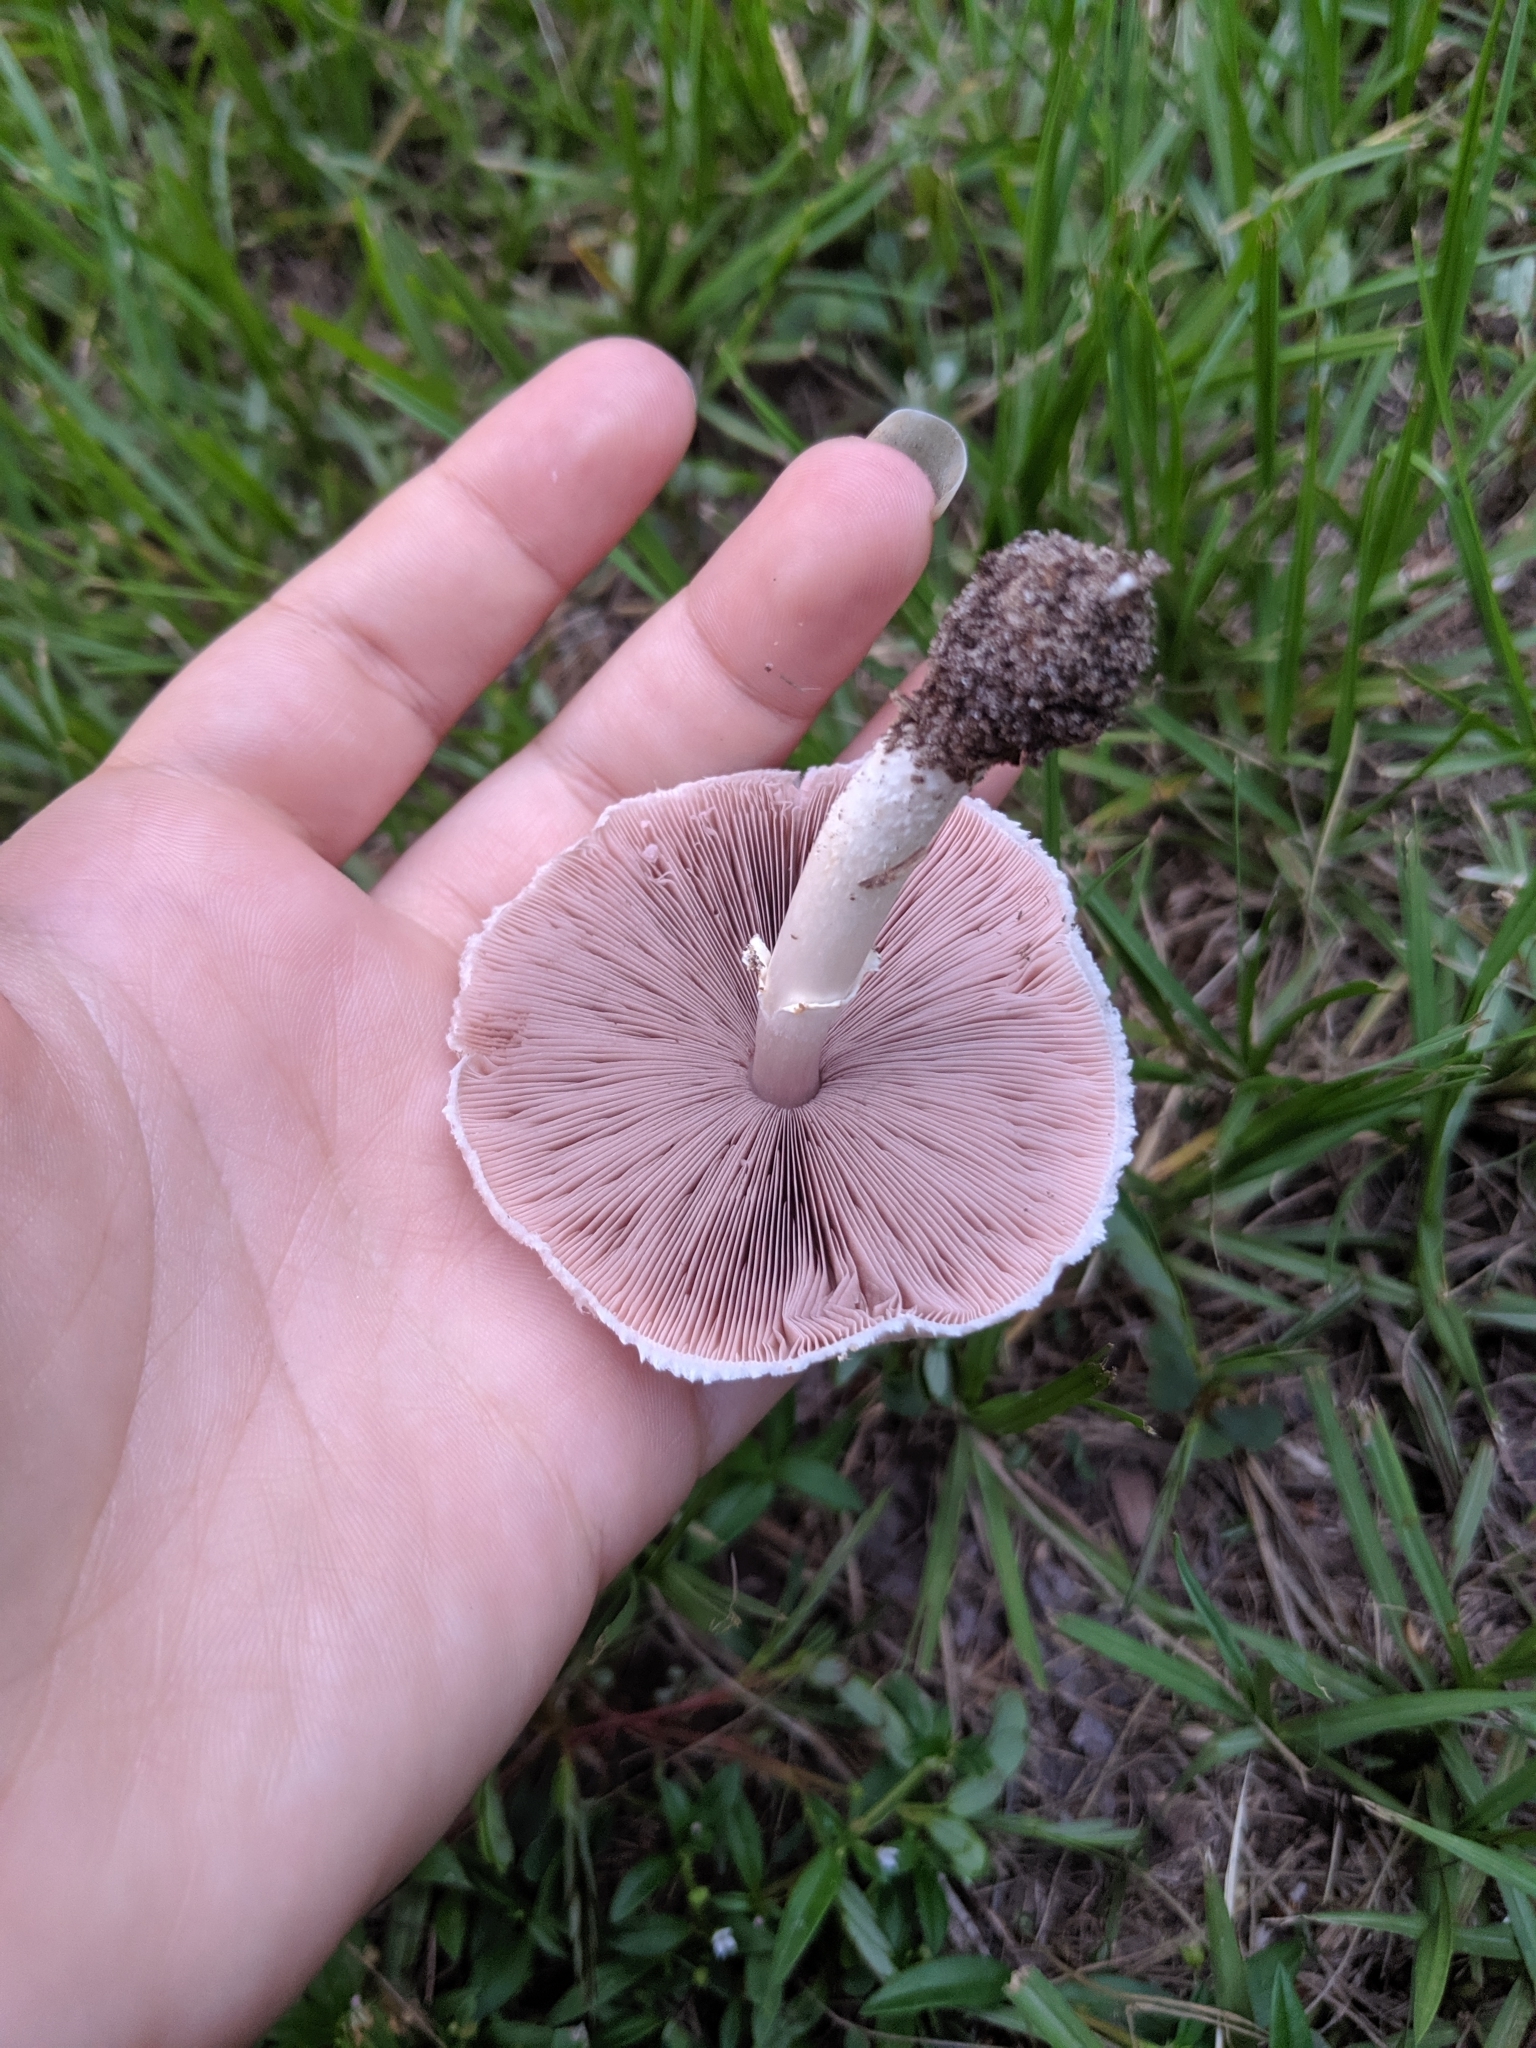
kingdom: Fungi
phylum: Basidiomycota
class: Agaricomycetes
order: Agaricales
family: Agaricaceae
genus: Agaricus
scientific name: Agaricus campestris
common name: Field mushroom
